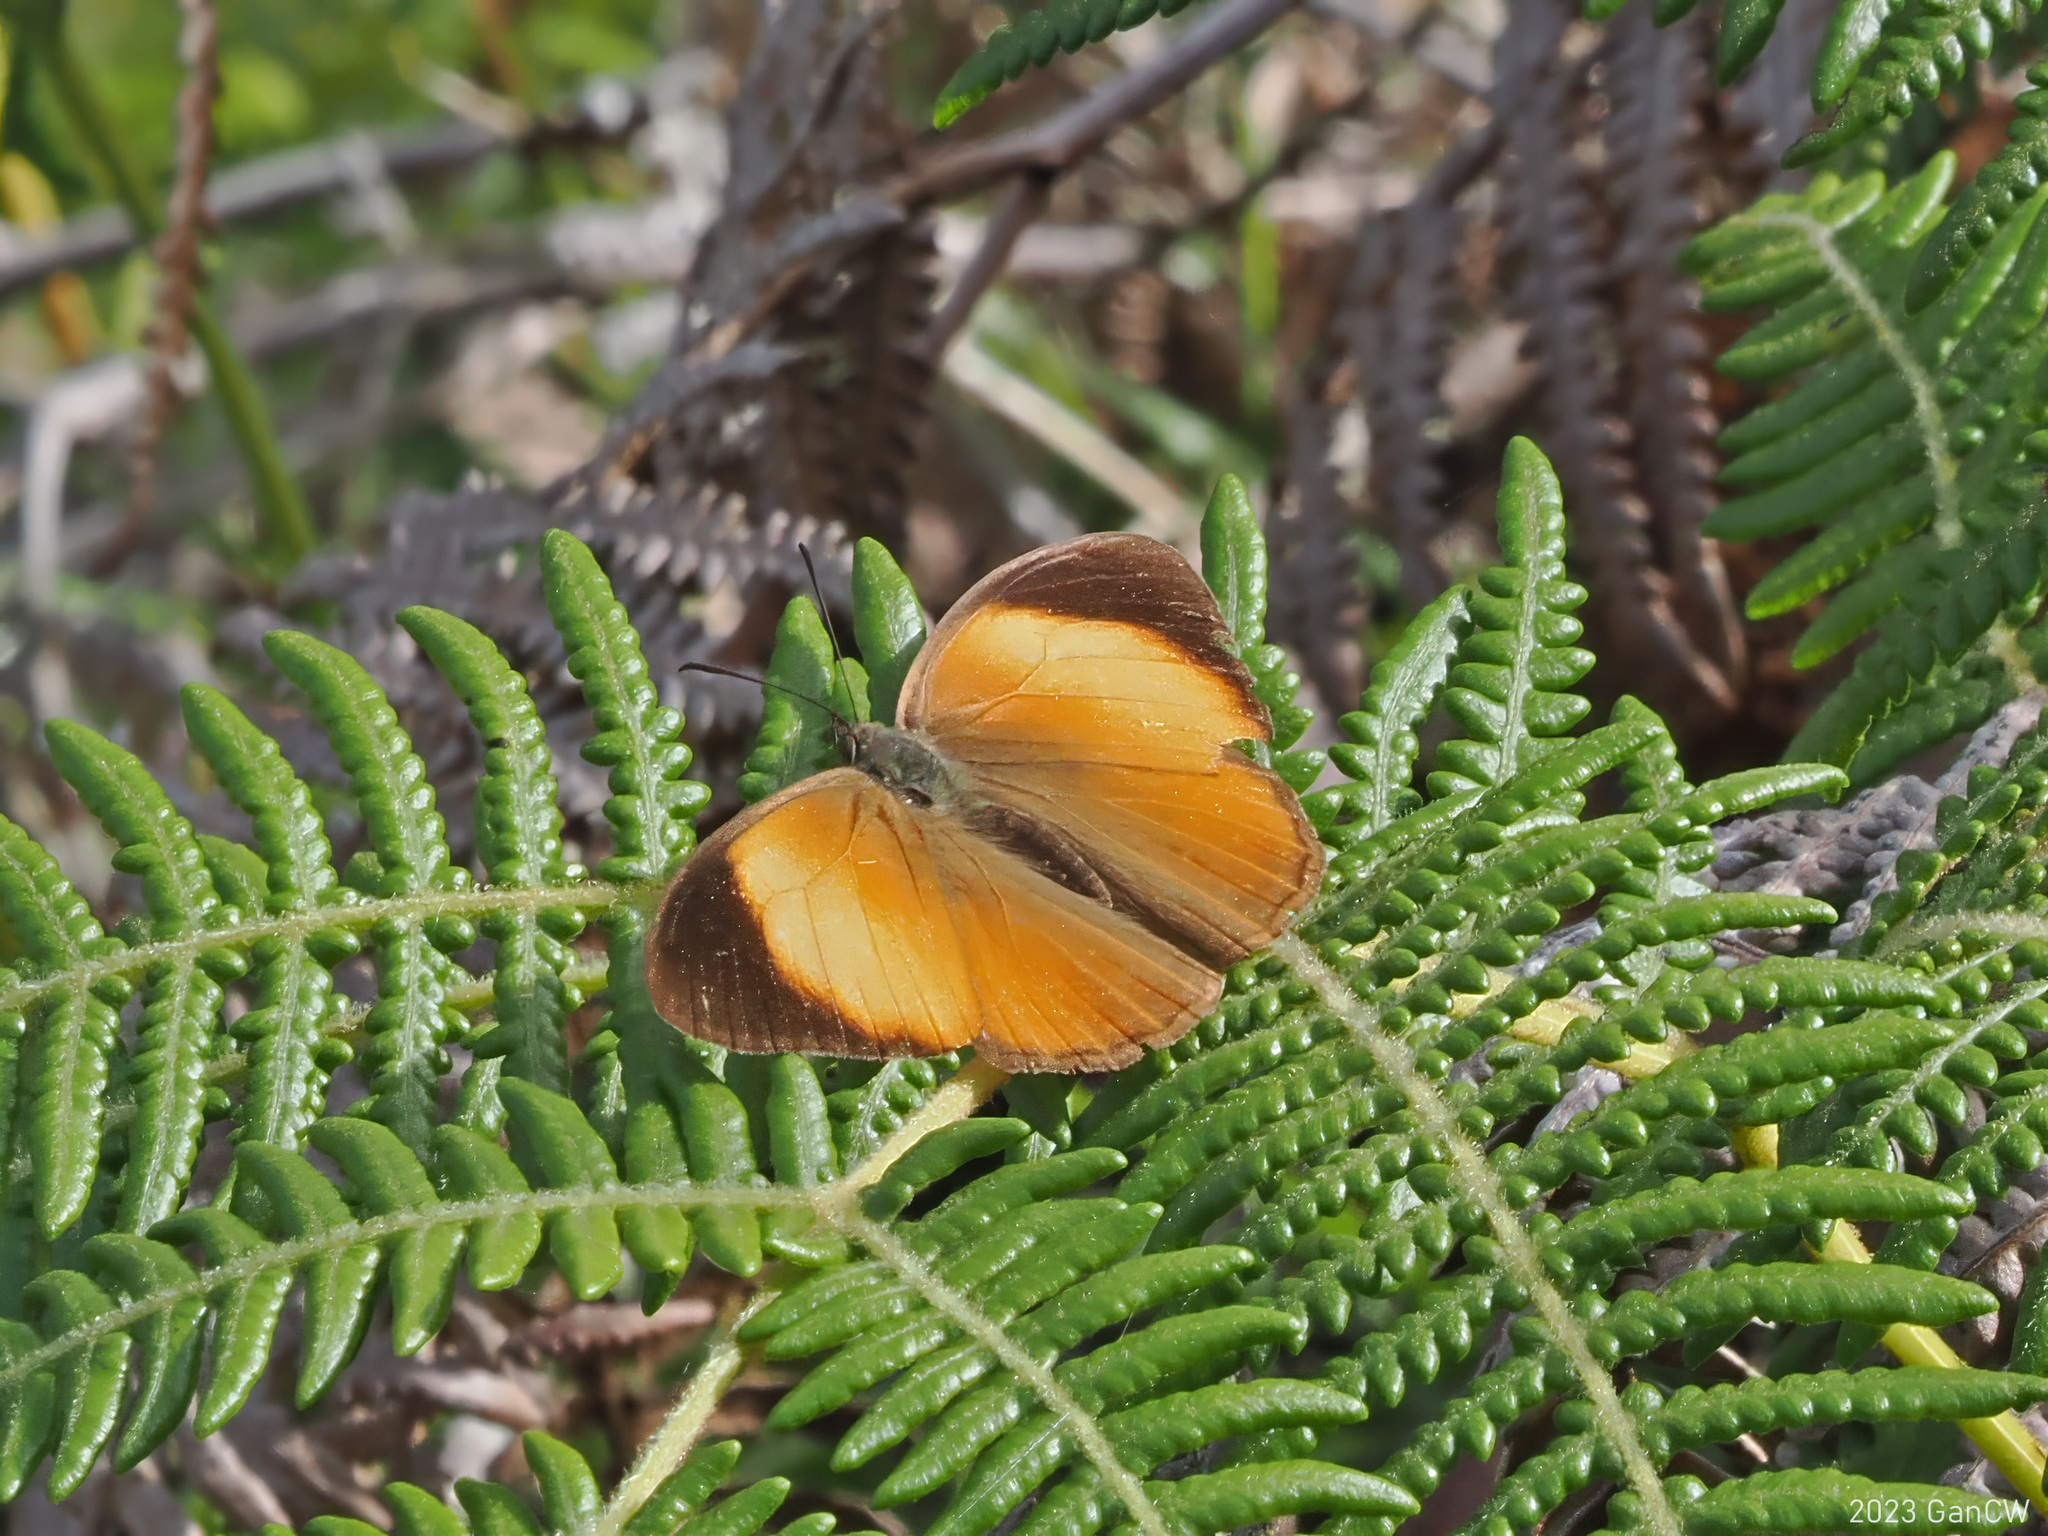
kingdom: Animalia
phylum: Arthropoda
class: Insecta
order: Lepidoptera
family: Nymphalidae
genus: Mycalesis
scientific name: Mycalesis
